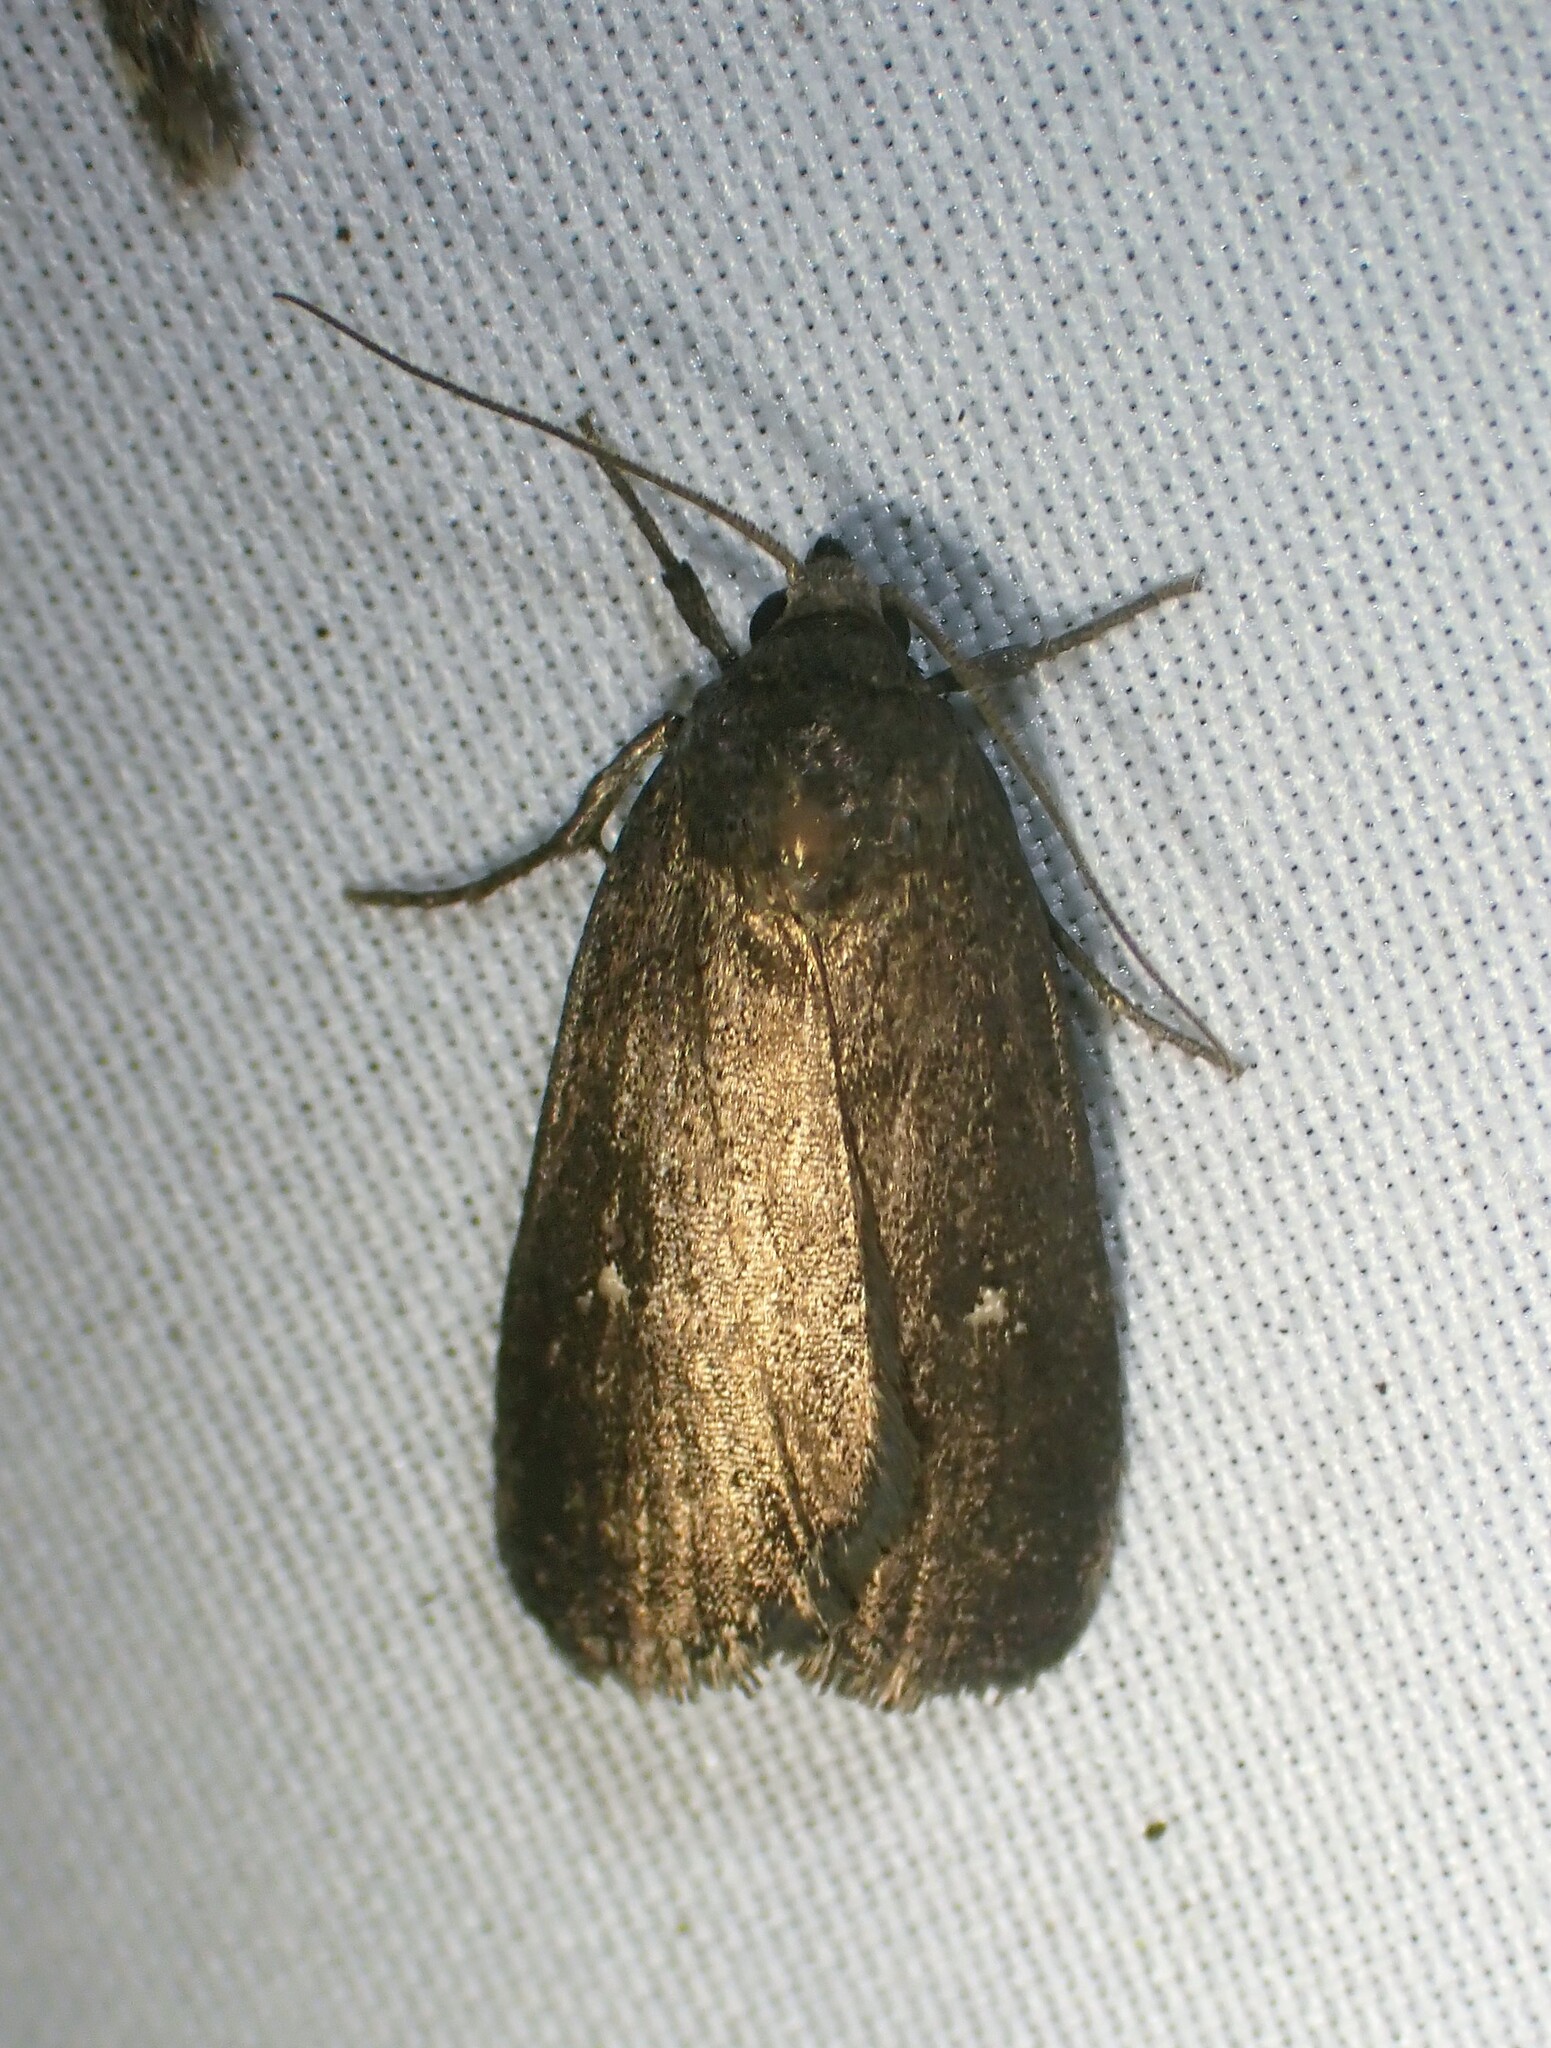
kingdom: Animalia
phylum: Arthropoda
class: Insecta
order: Lepidoptera
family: Noctuidae
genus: Proxenus
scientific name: Proxenus miranda
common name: Miranda moth
